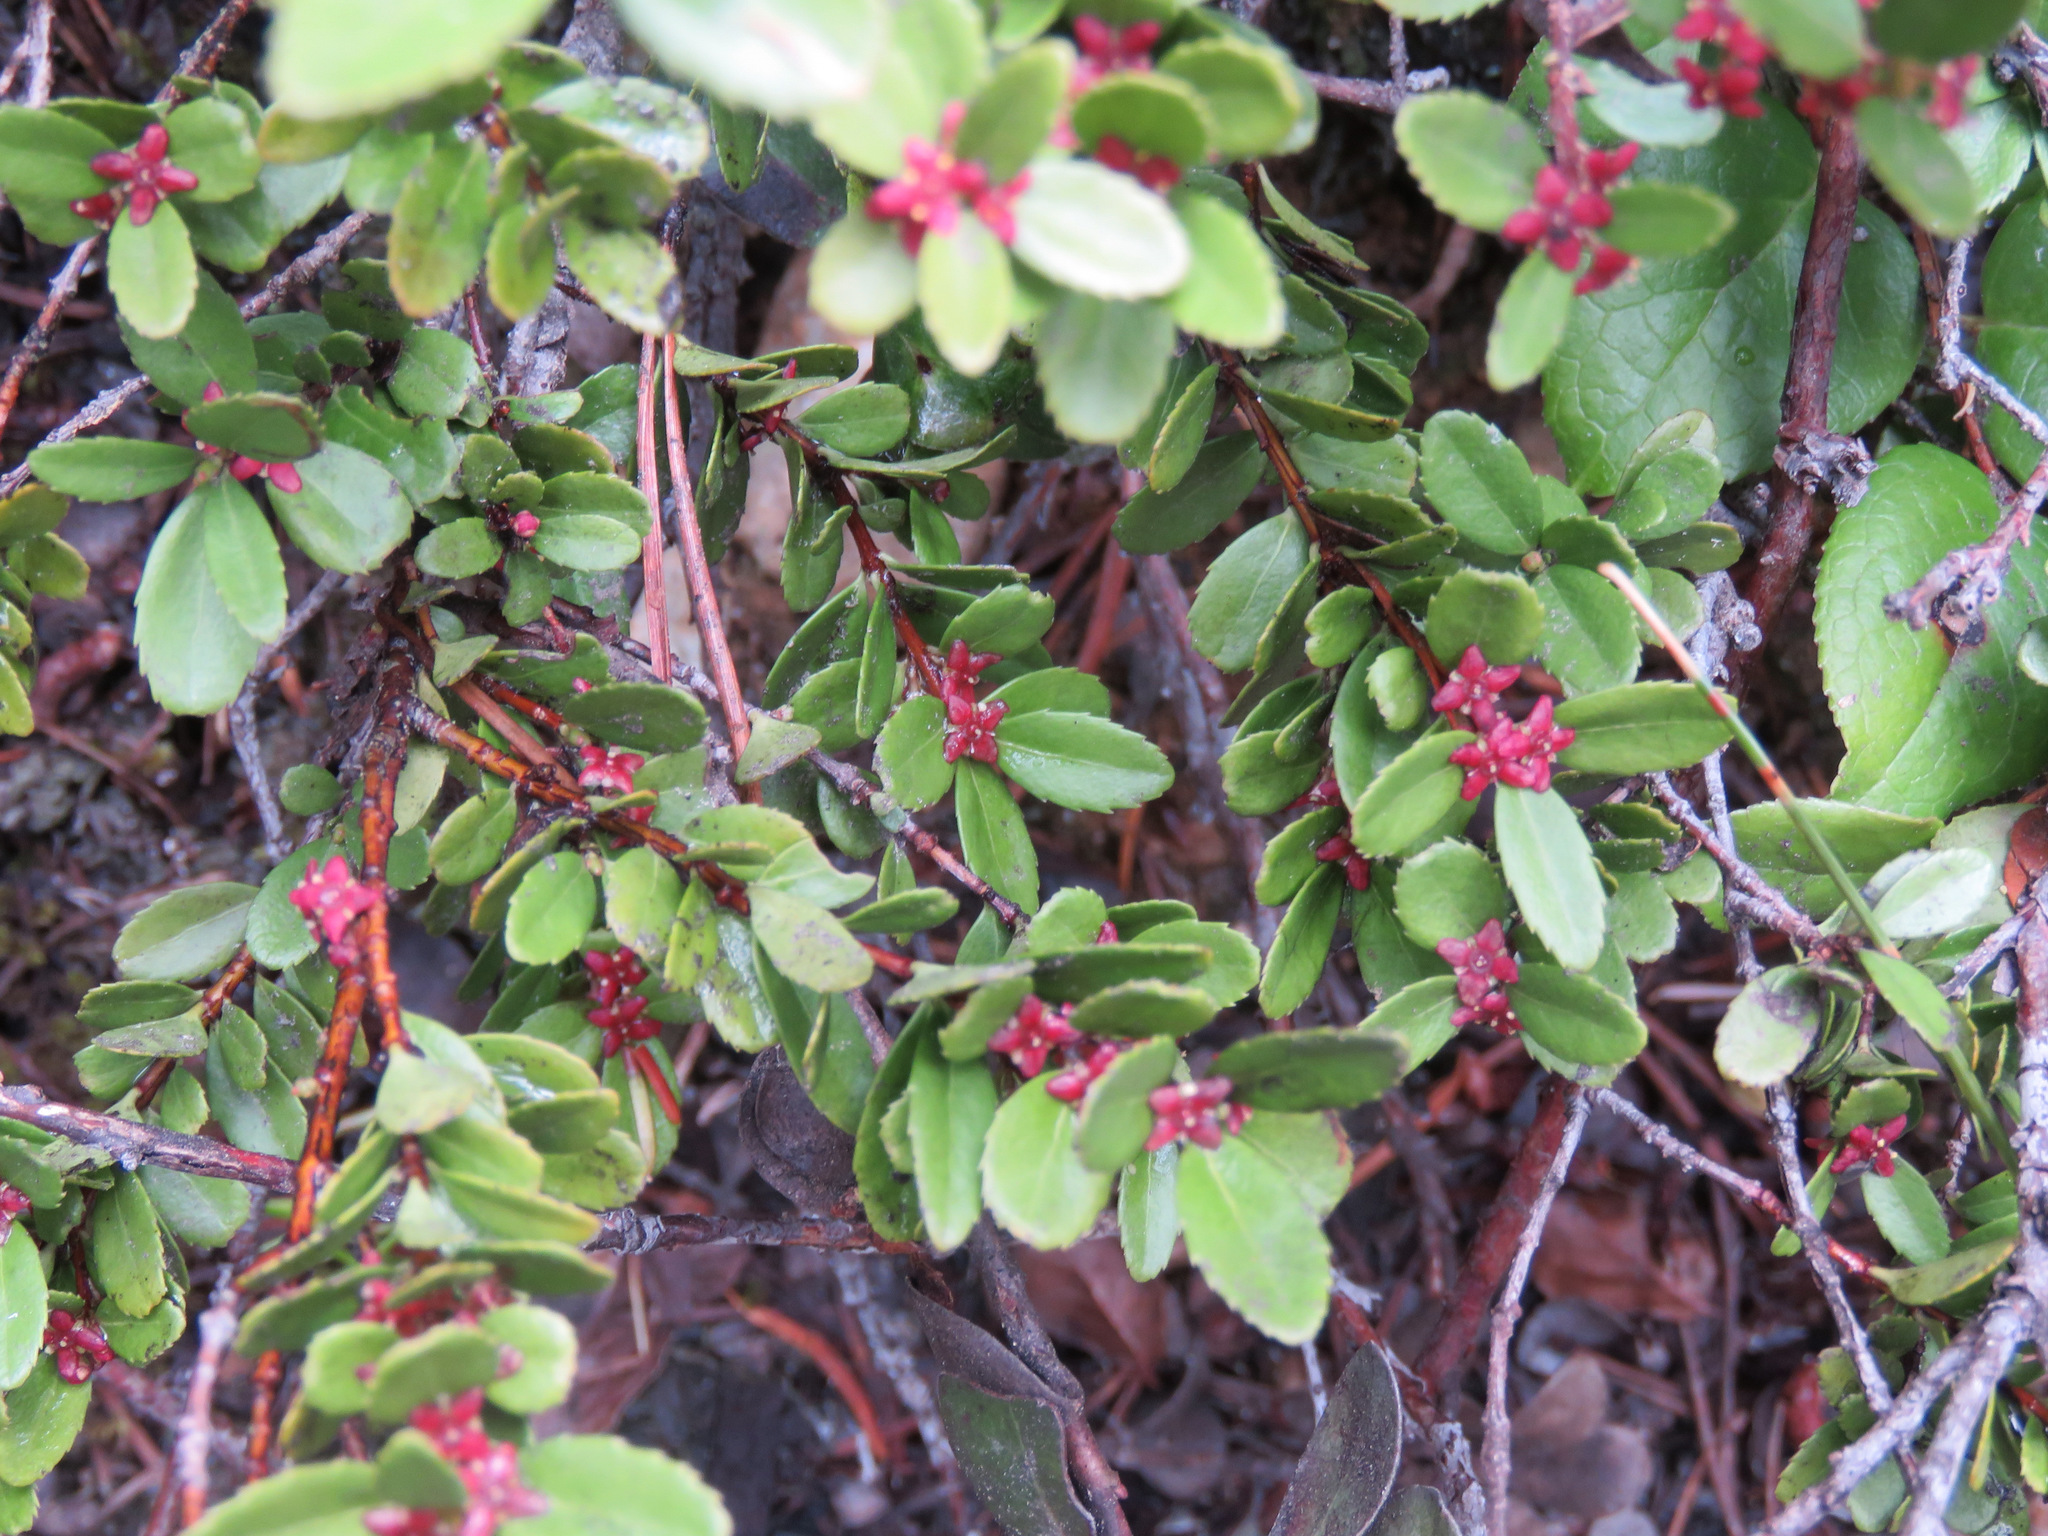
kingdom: Plantae
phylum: Tracheophyta
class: Magnoliopsida
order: Celastrales
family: Celastraceae
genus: Paxistima
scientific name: Paxistima myrsinites
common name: Mountain-lover
